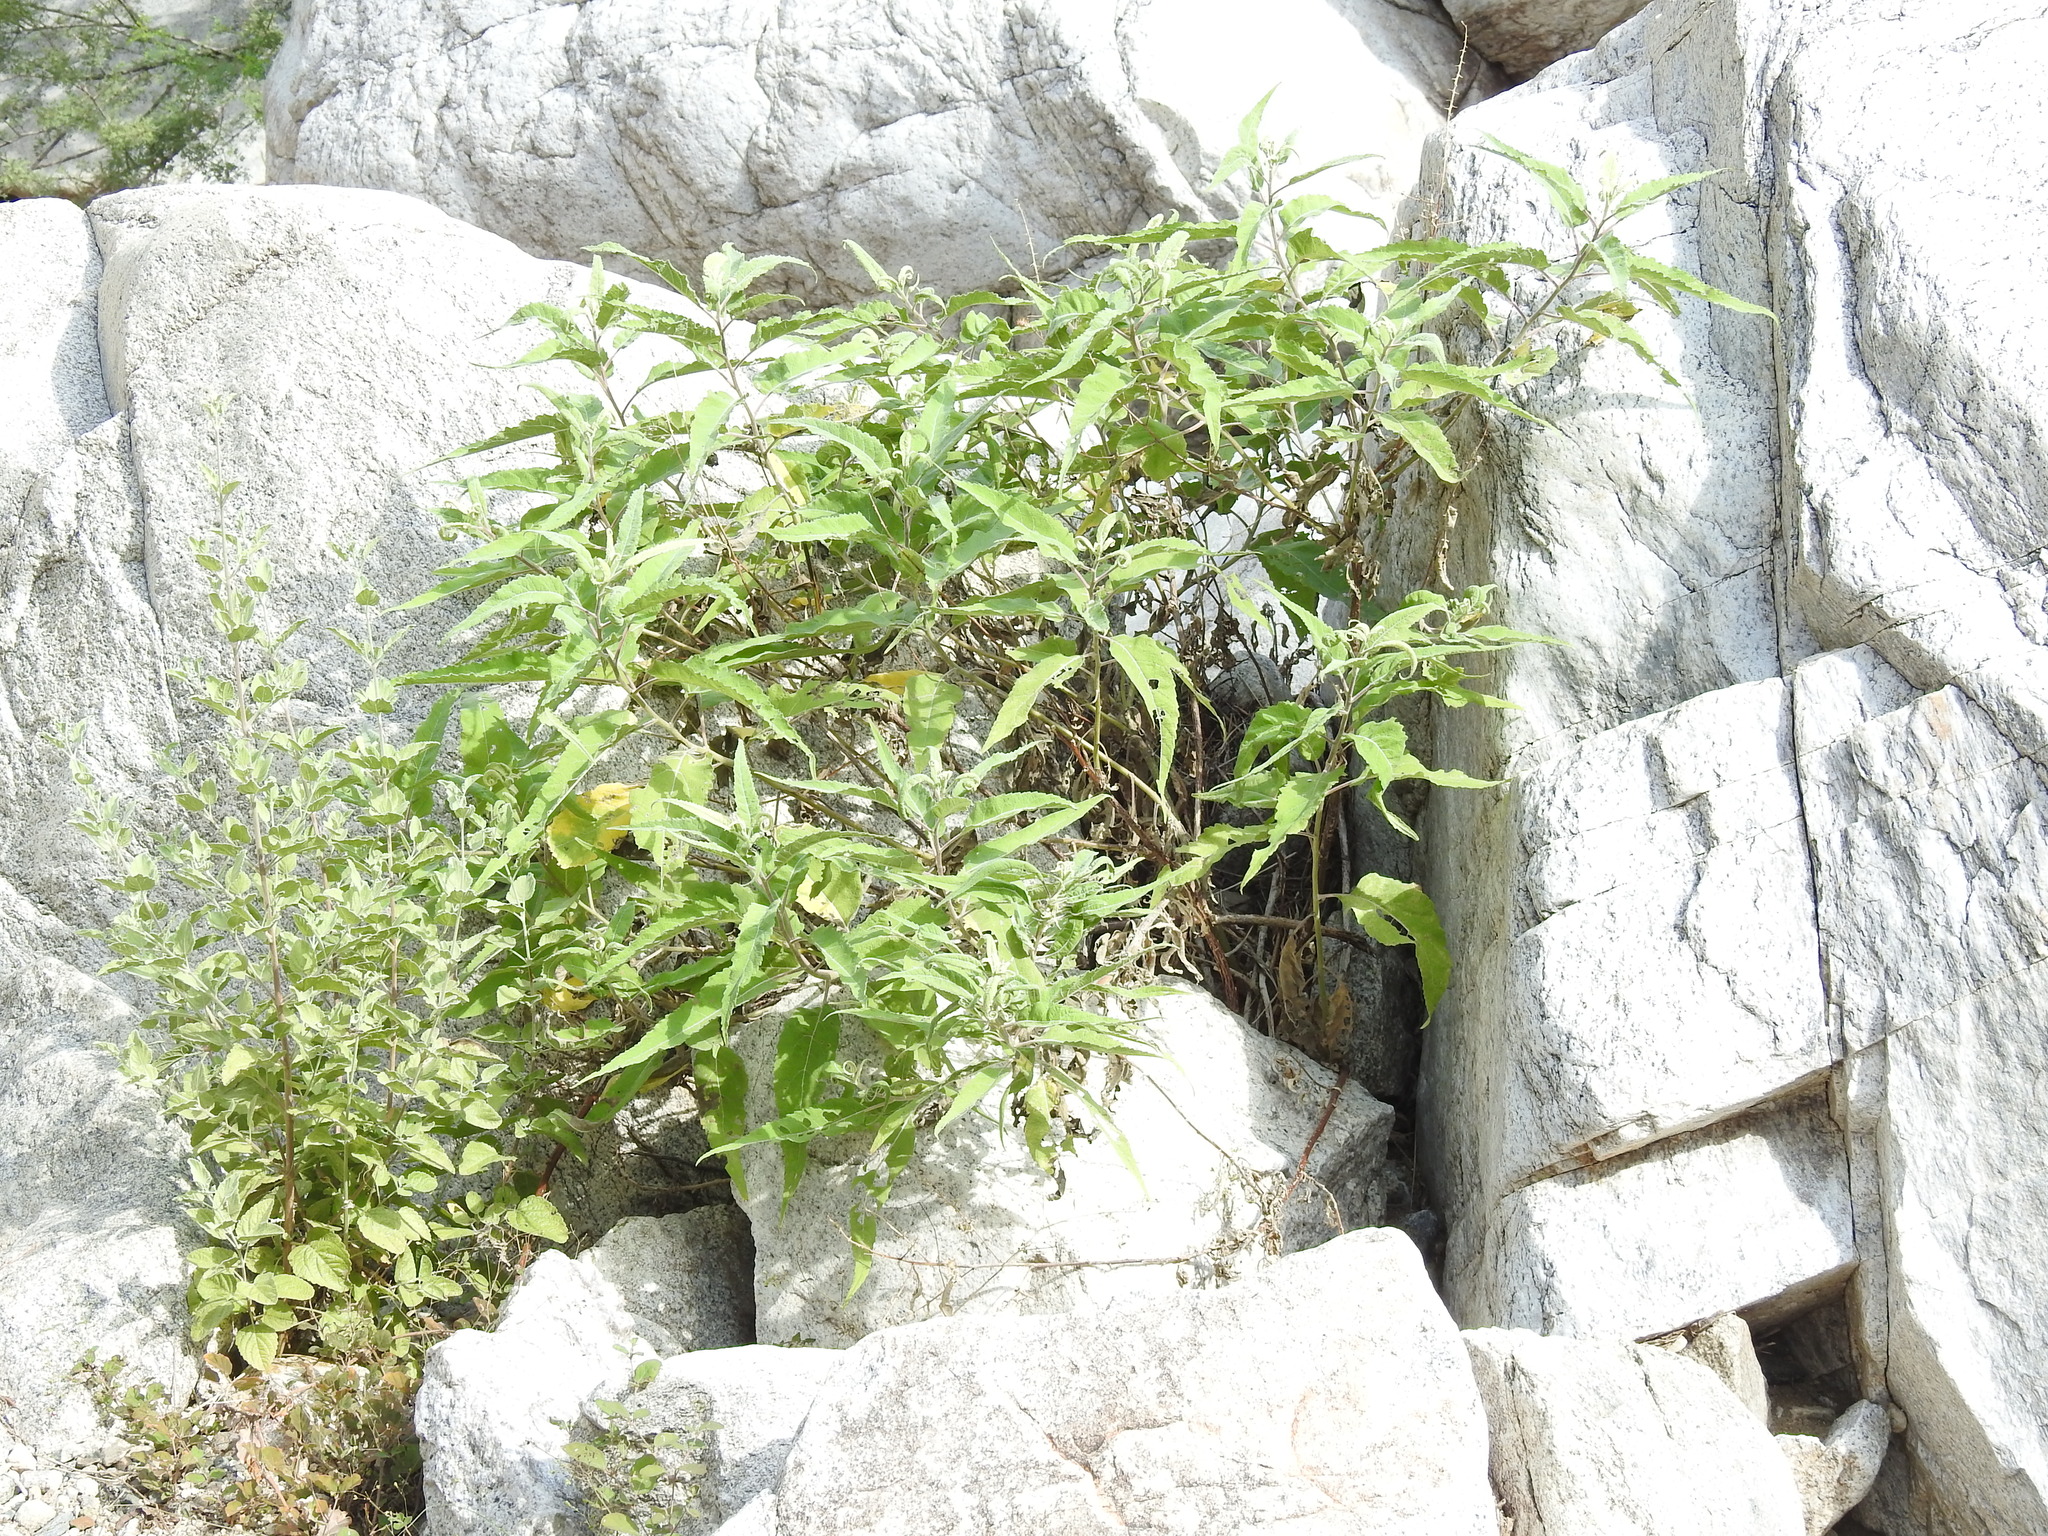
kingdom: Plantae
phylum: Tracheophyta
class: Magnoliopsida
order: Asterales
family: Asteraceae
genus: Ambrosia
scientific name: Ambrosia ambrosioides
